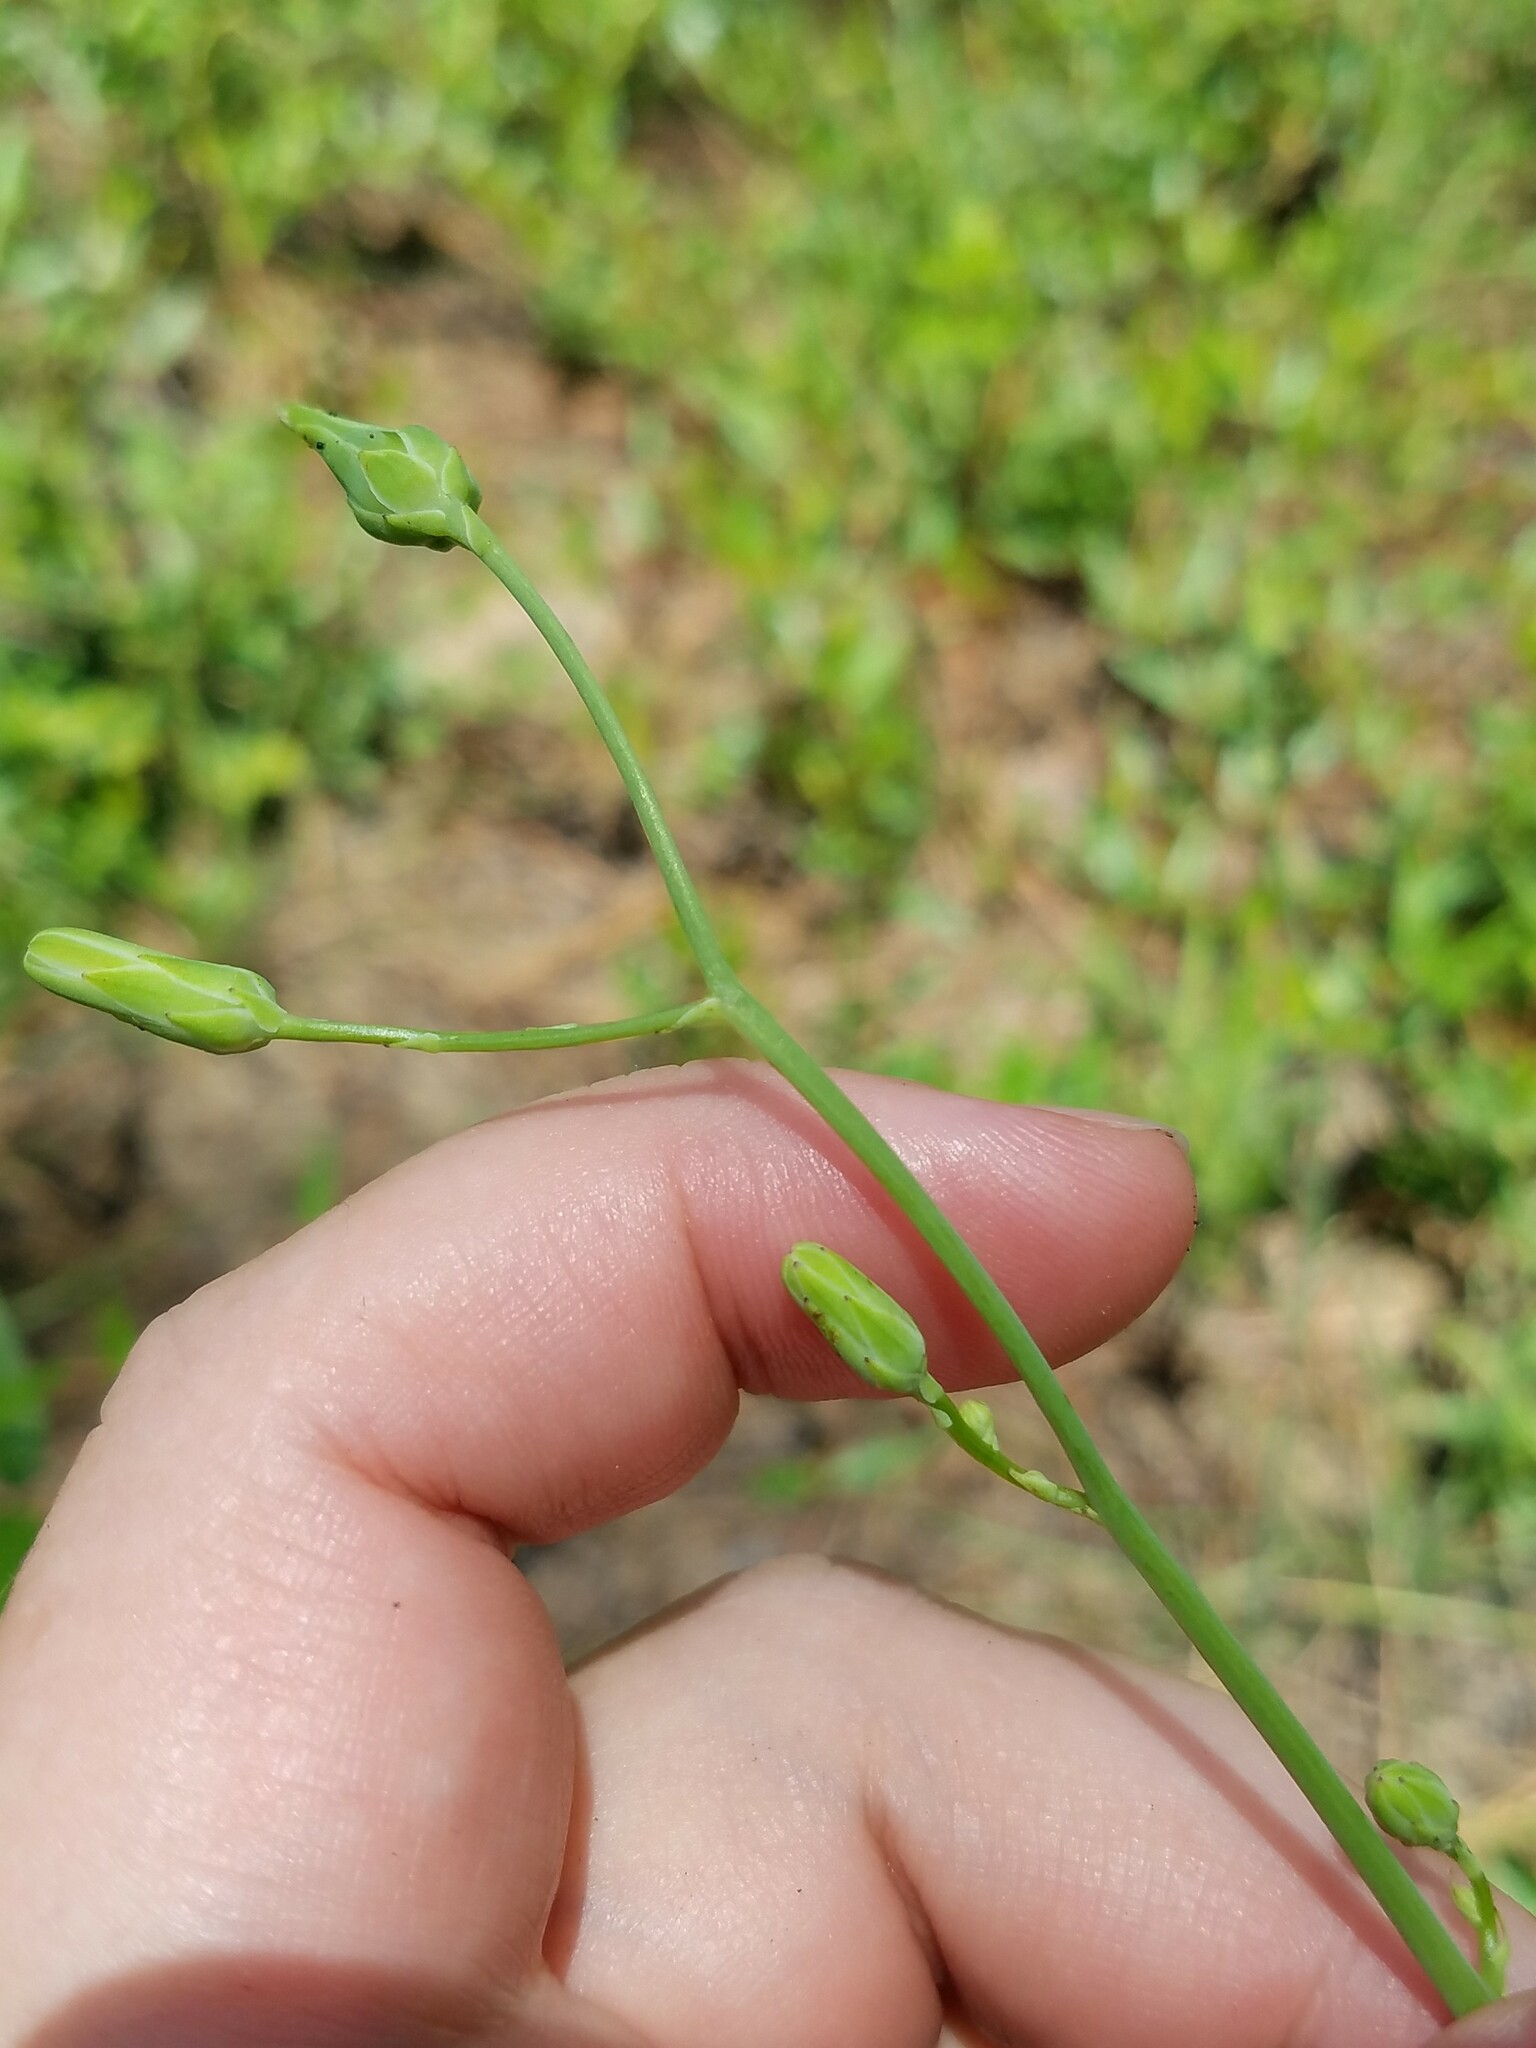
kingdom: Plantae
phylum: Tracheophyta
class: Magnoliopsida
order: Asterales
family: Asteraceae
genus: Lactuca
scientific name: Lactuca graminifolia
